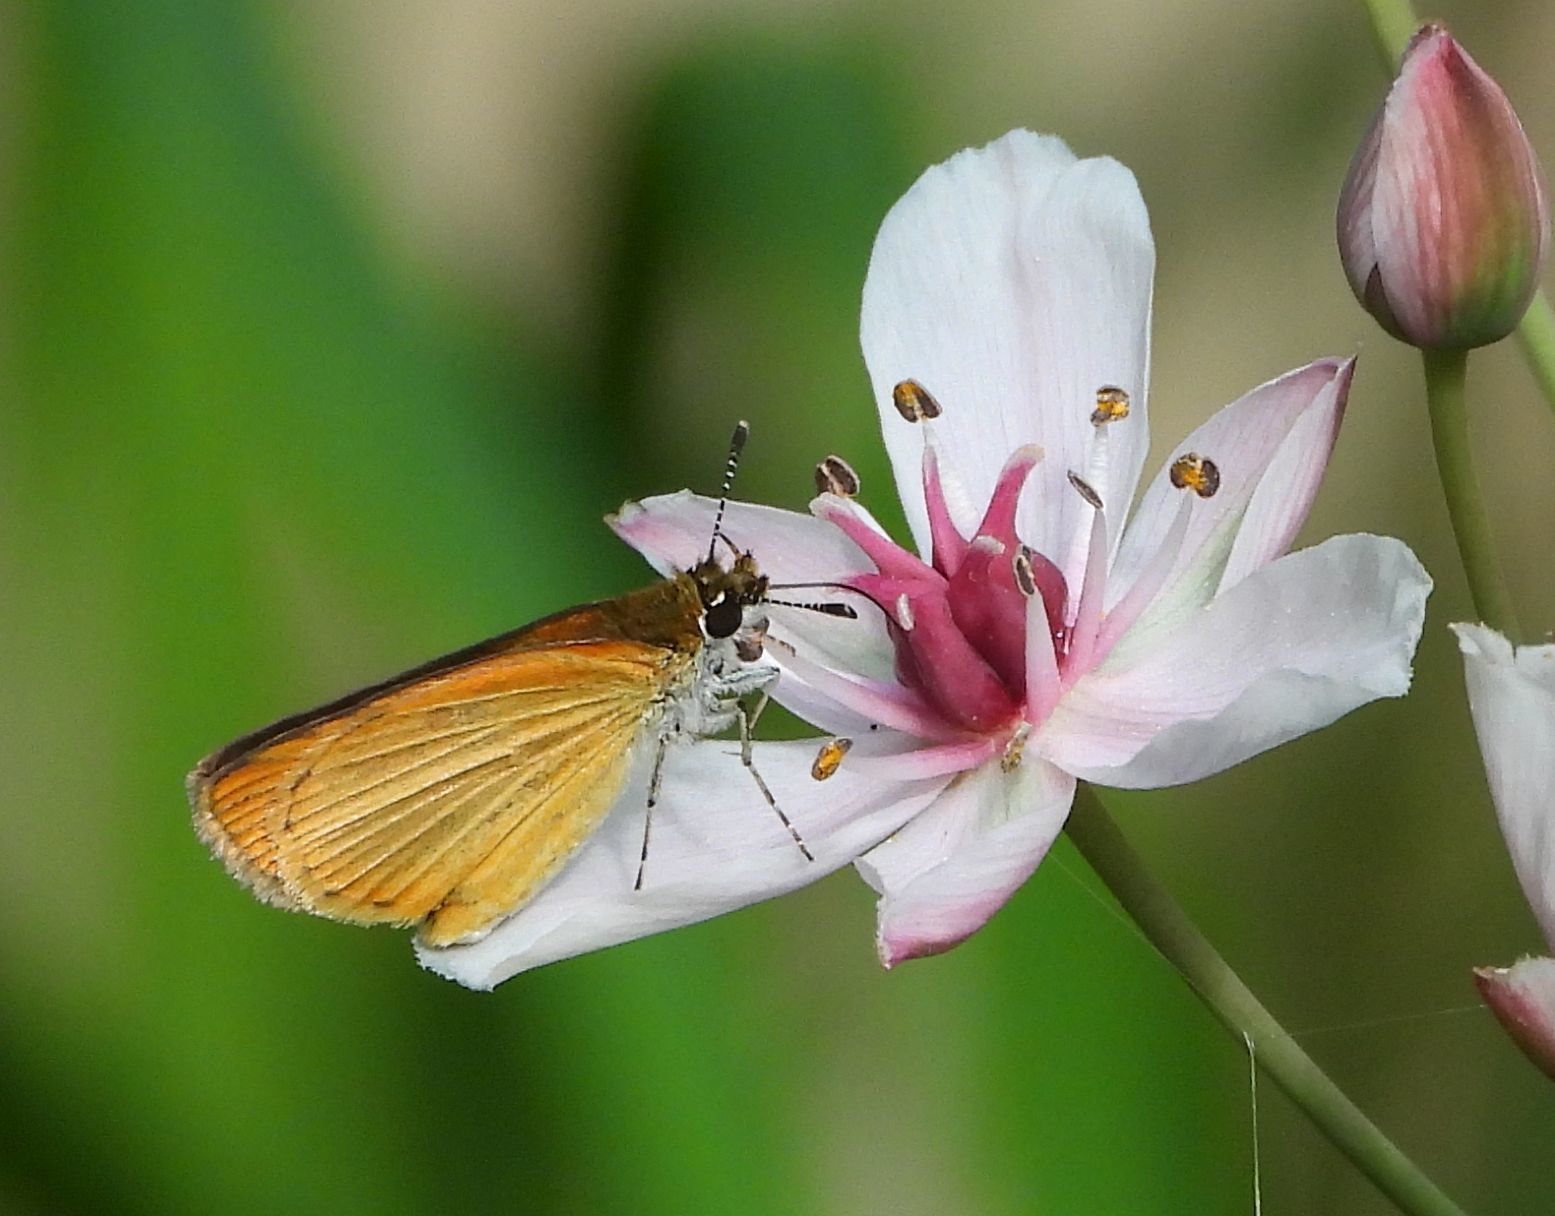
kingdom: Animalia
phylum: Arthropoda
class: Insecta
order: Lepidoptera
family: Hesperiidae
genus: Ancyloxypha
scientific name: Ancyloxypha numitor
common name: Least skipper
